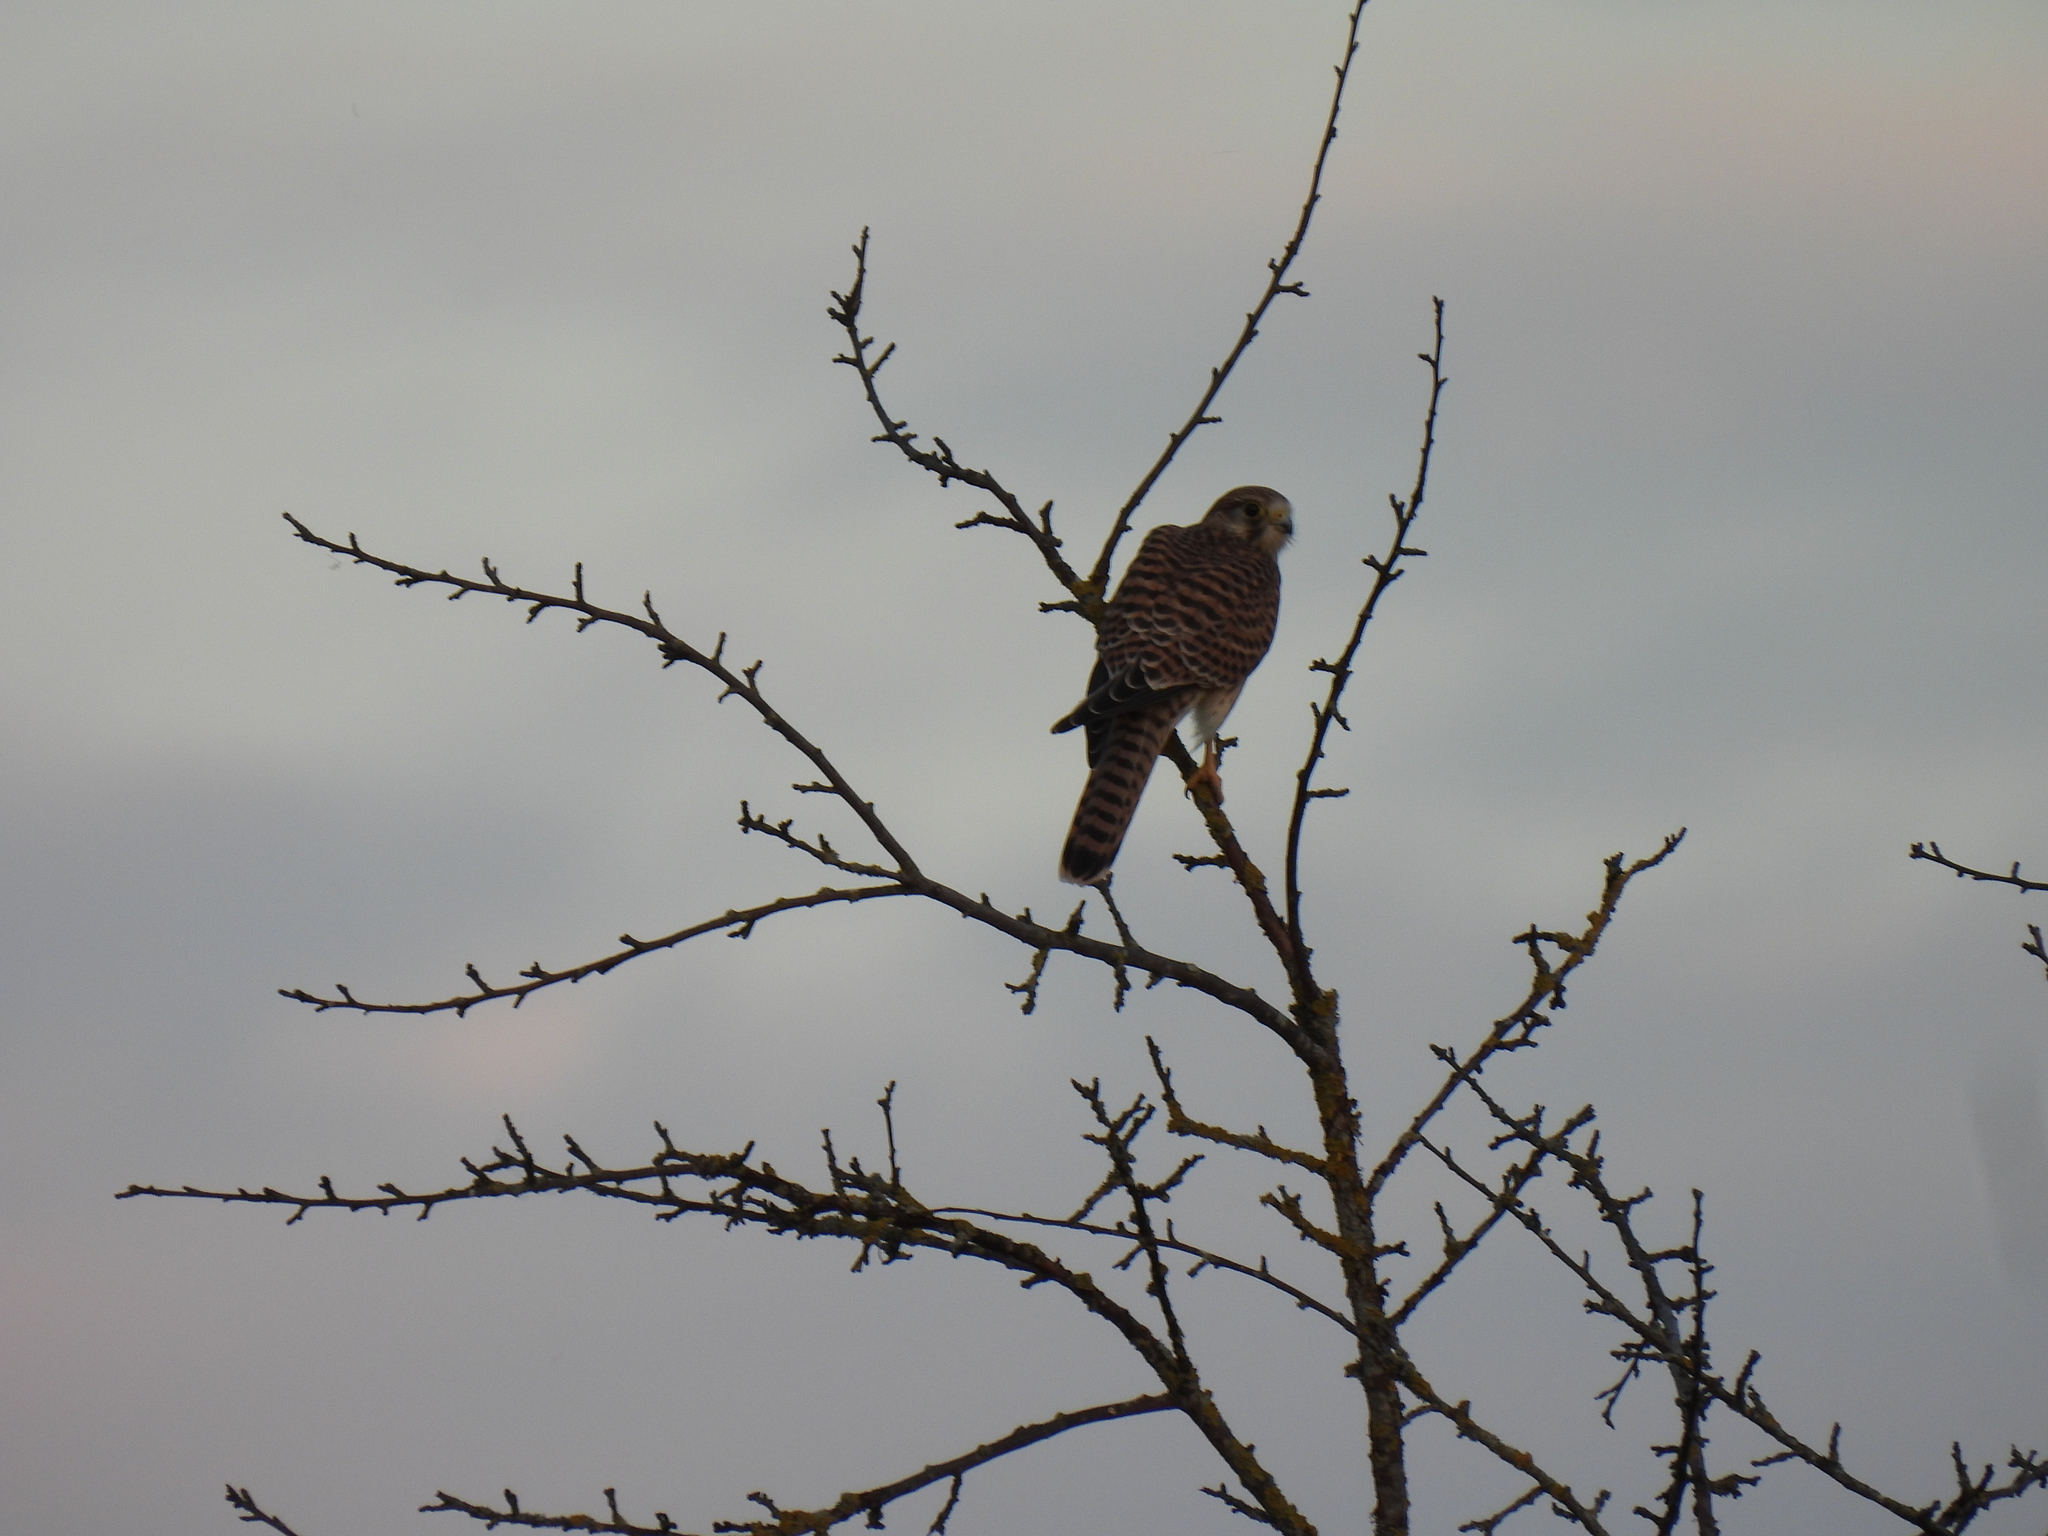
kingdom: Animalia
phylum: Chordata
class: Aves
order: Falconiformes
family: Falconidae
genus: Falco
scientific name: Falco tinnunculus
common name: Common kestrel
